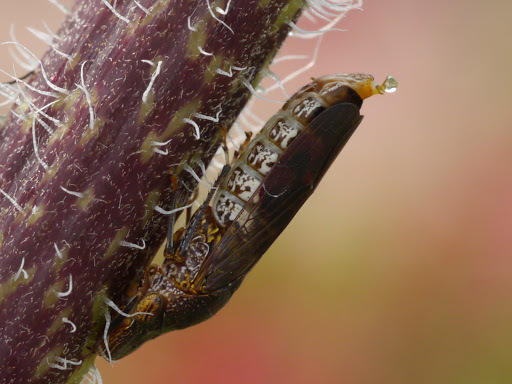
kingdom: Animalia
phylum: Arthropoda
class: Insecta
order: Hemiptera
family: Cicadellidae
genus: Homalodisca
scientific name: Homalodisca vitripennis
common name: Glassy-winged sharpshooter
